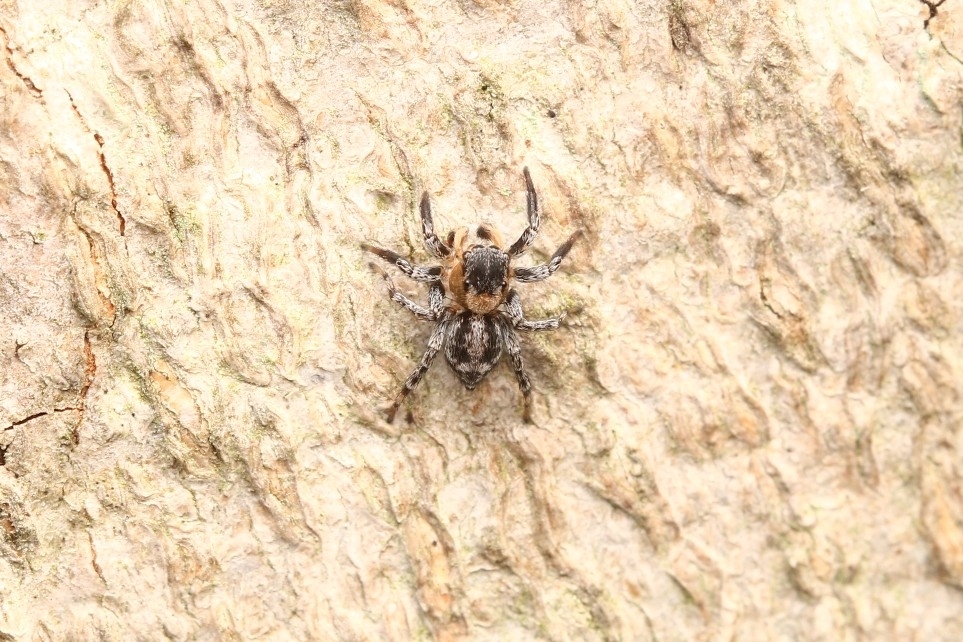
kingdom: Animalia
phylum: Arthropoda
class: Arachnida
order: Araneae
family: Salticidae
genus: Naphrys
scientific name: Naphrys pulex
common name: Flea jumping spider
